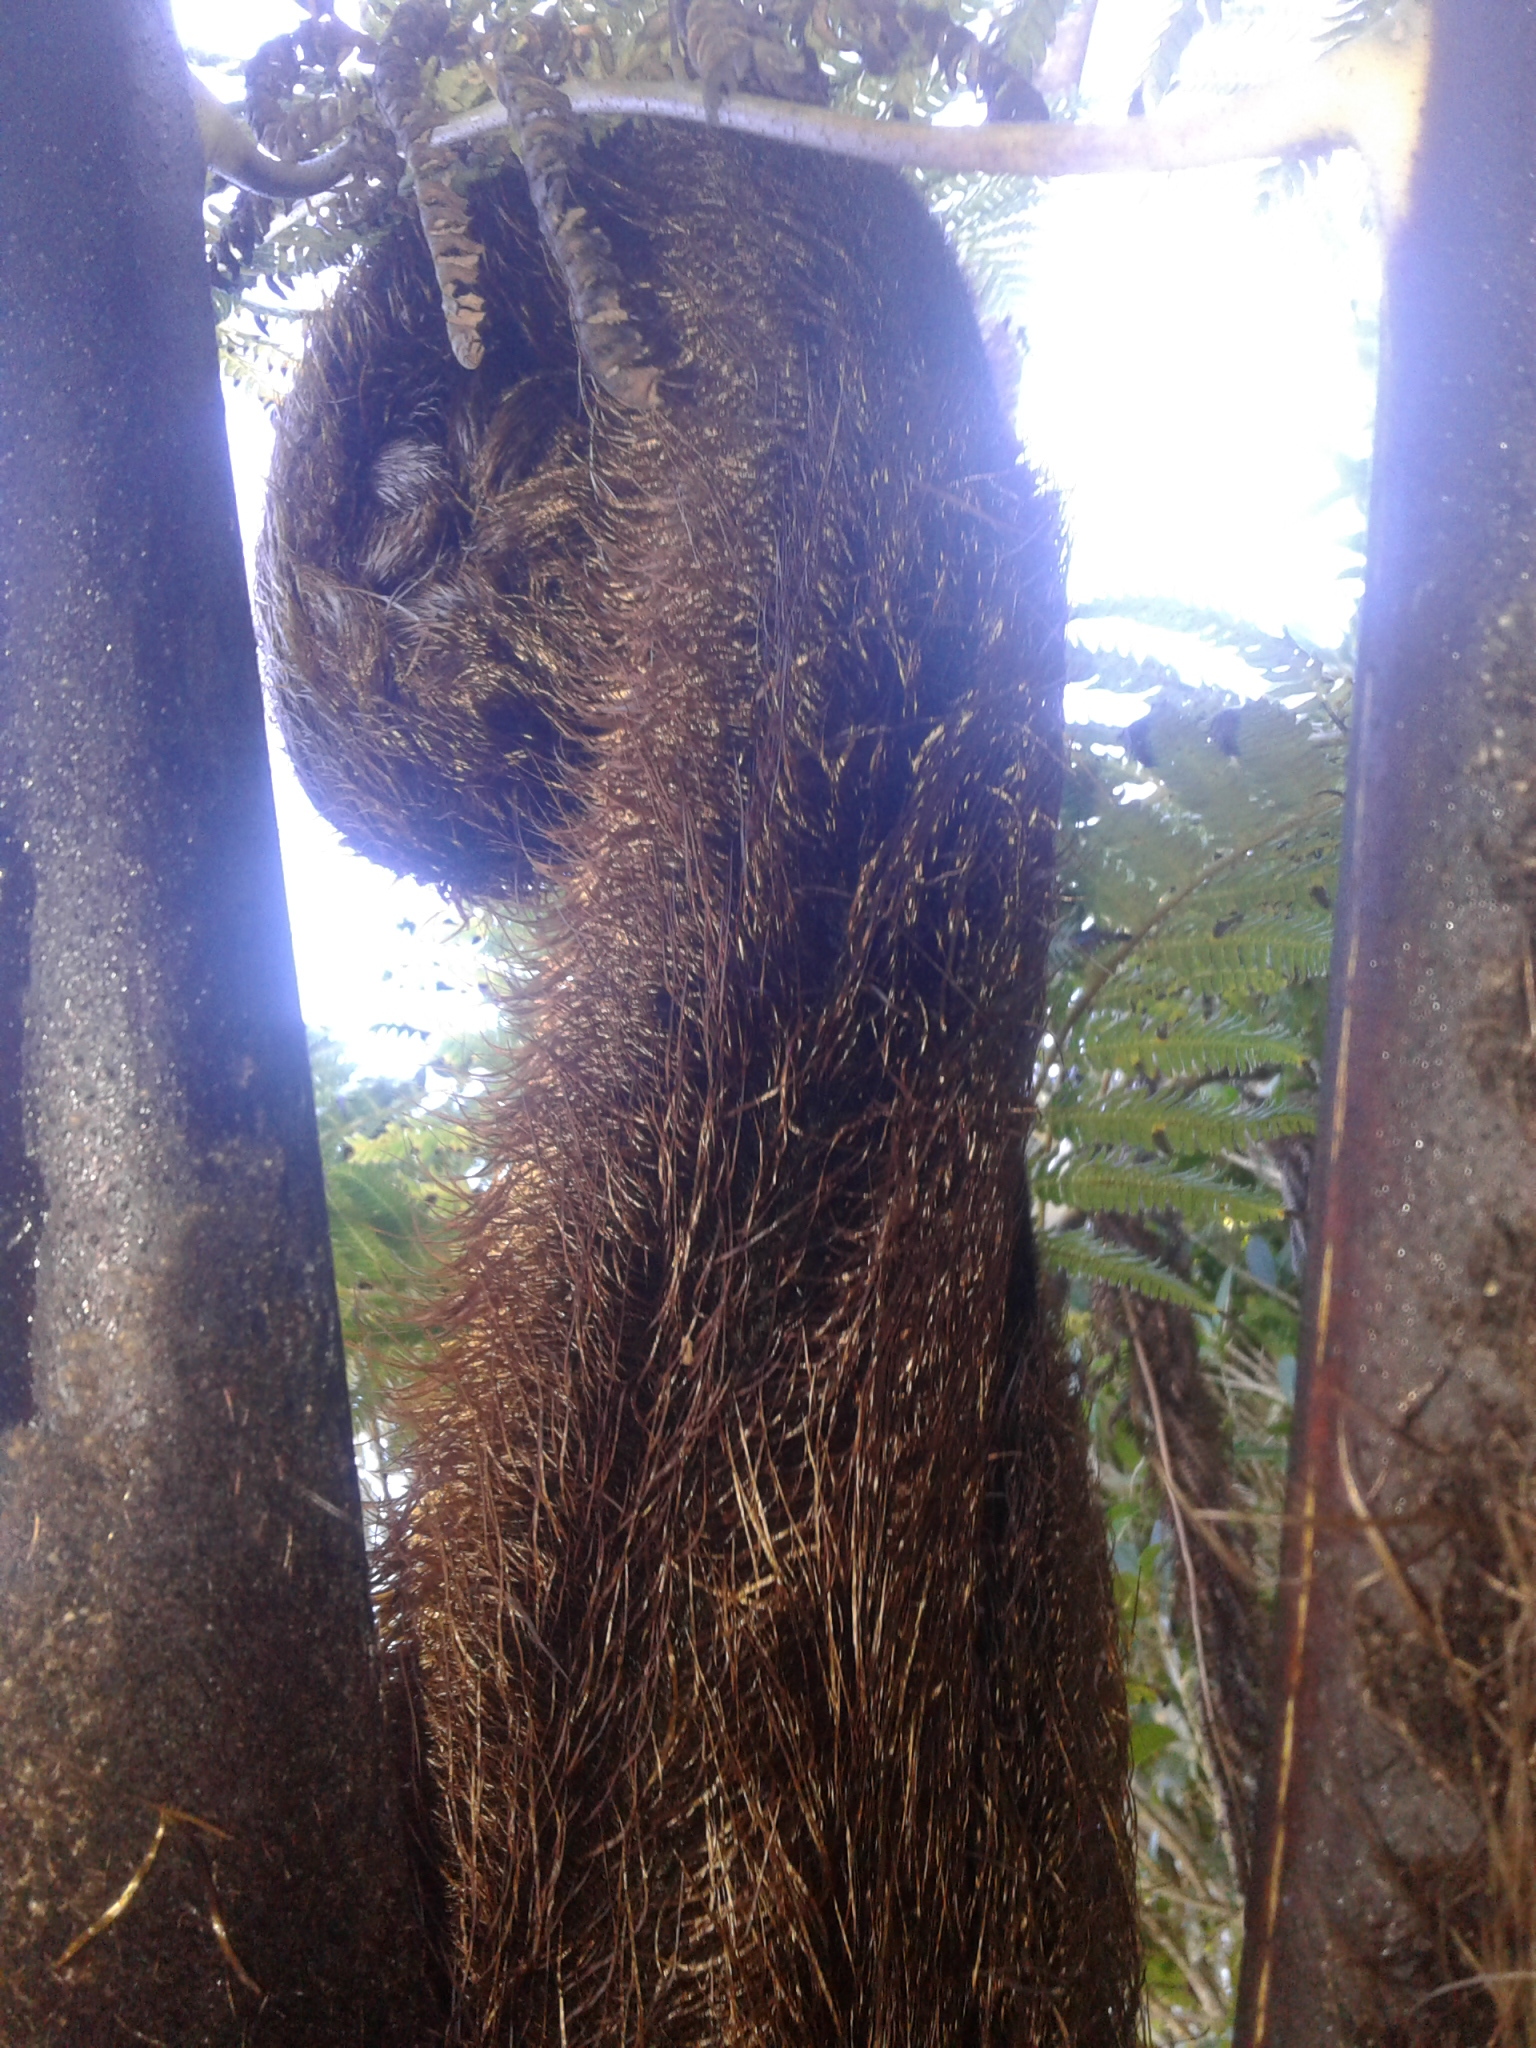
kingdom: Plantae
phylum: Tracheophyta
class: Polypodiopsida
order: Cyatheales
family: Cyatheaceae
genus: Sphaeropteris
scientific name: Sphaeropteris medullaris
